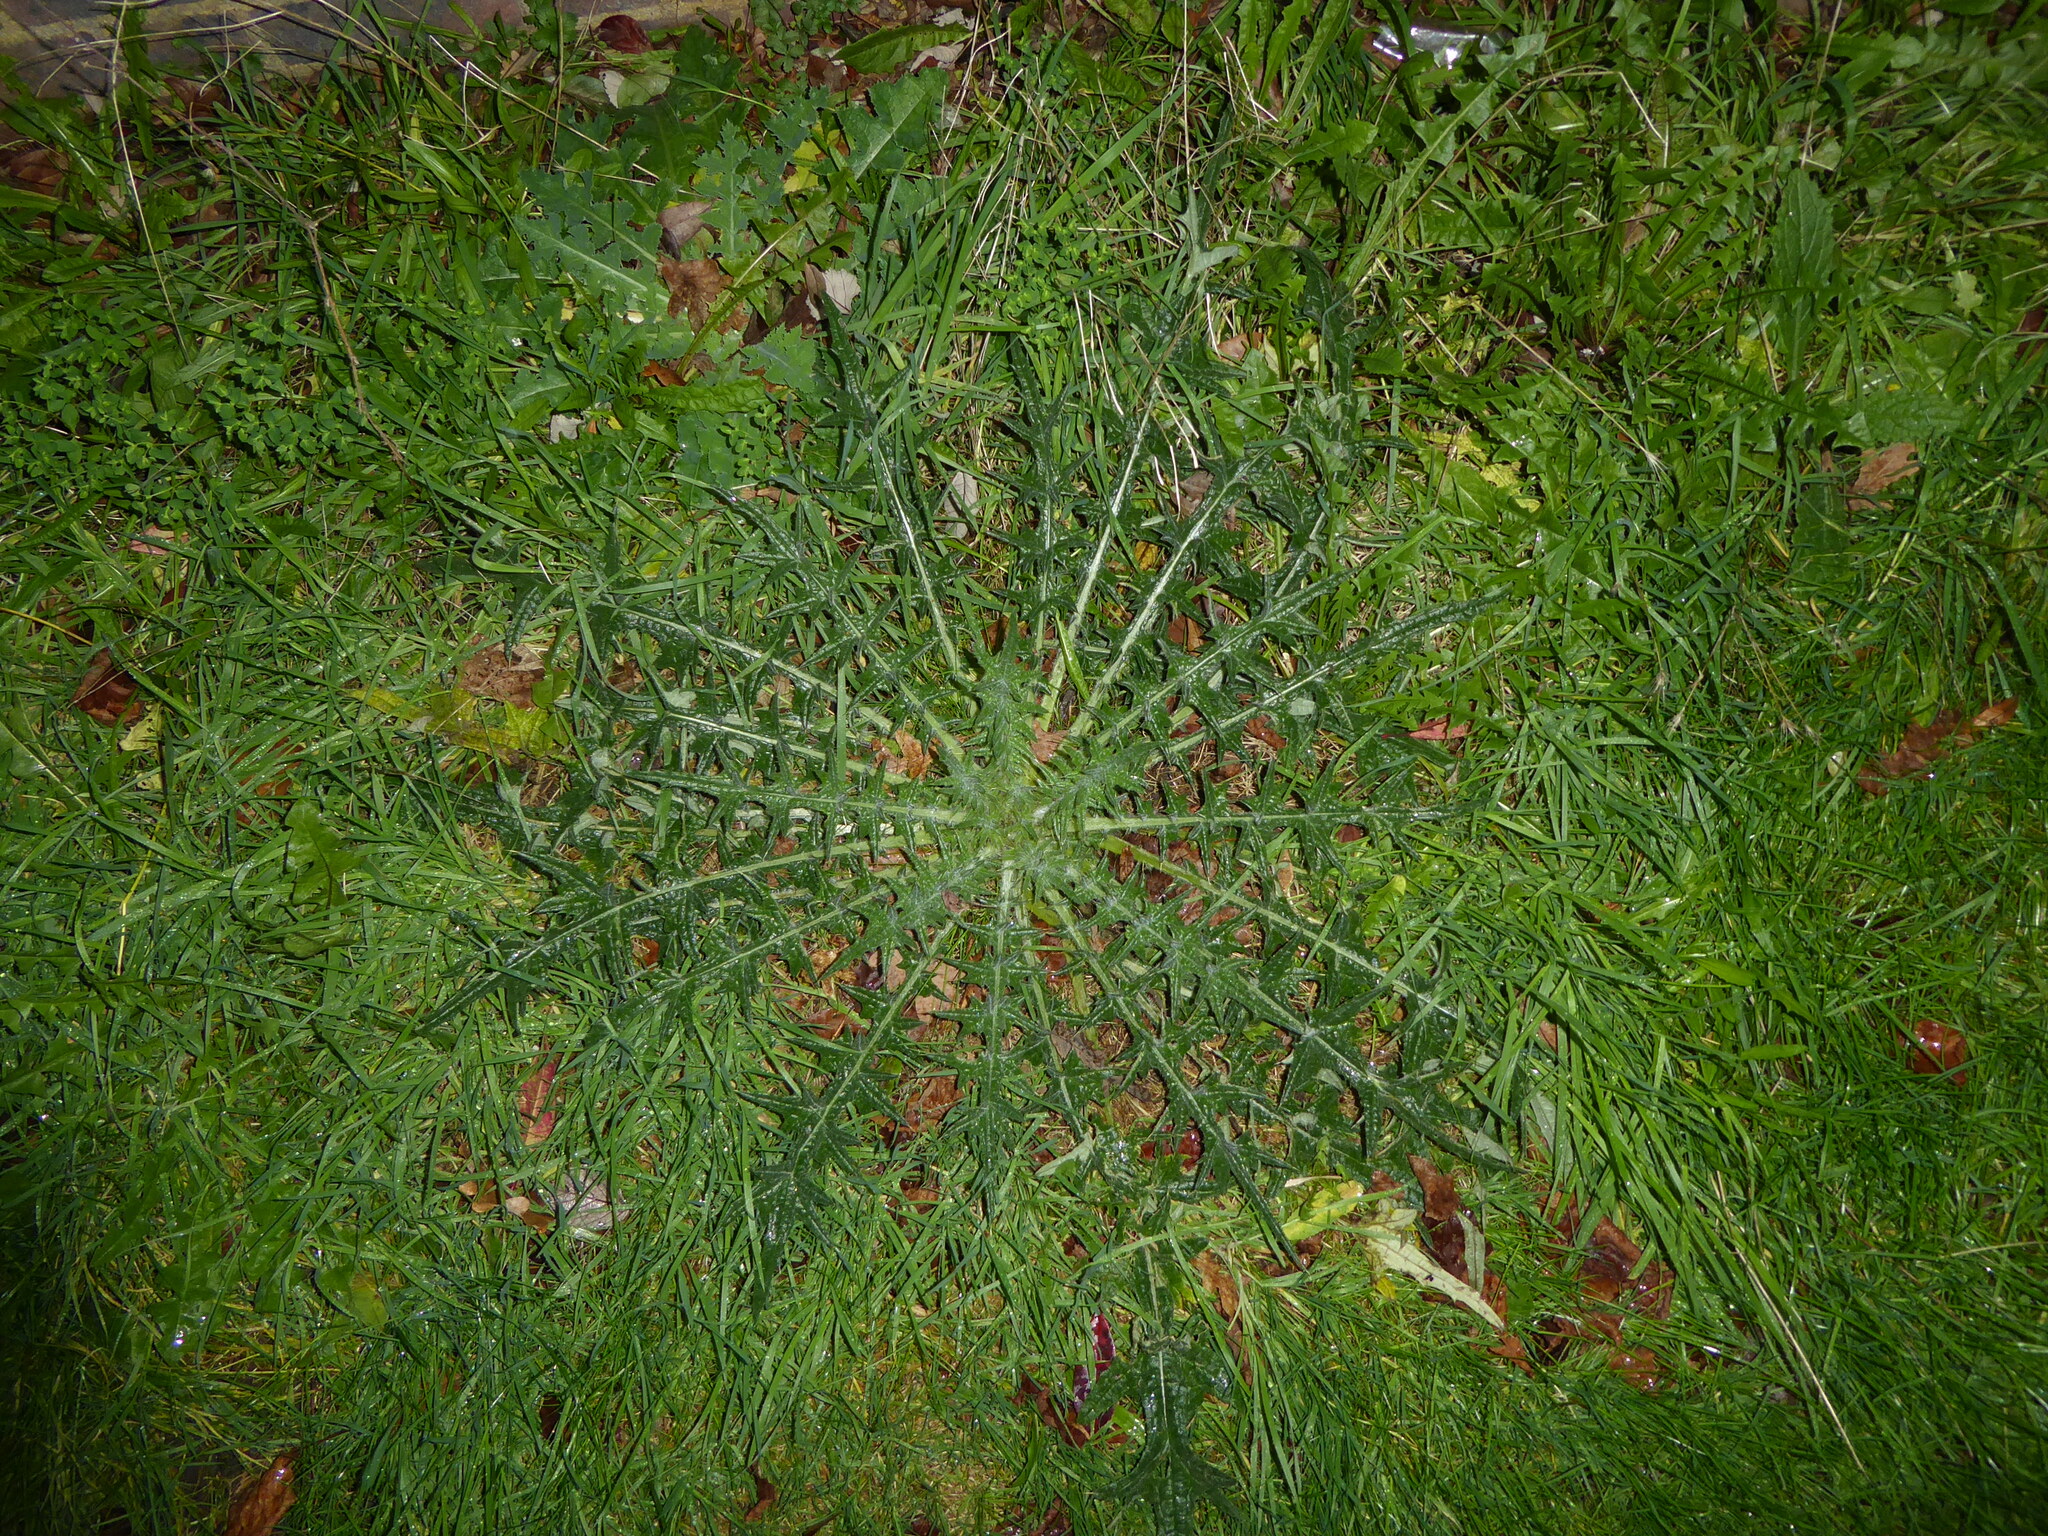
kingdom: Plantae
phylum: Tracheophyta
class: Magnoliopsida
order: Asterales
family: Asteraceae
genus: Cirsium
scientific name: Cirsium vulgare
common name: Bull thistle
